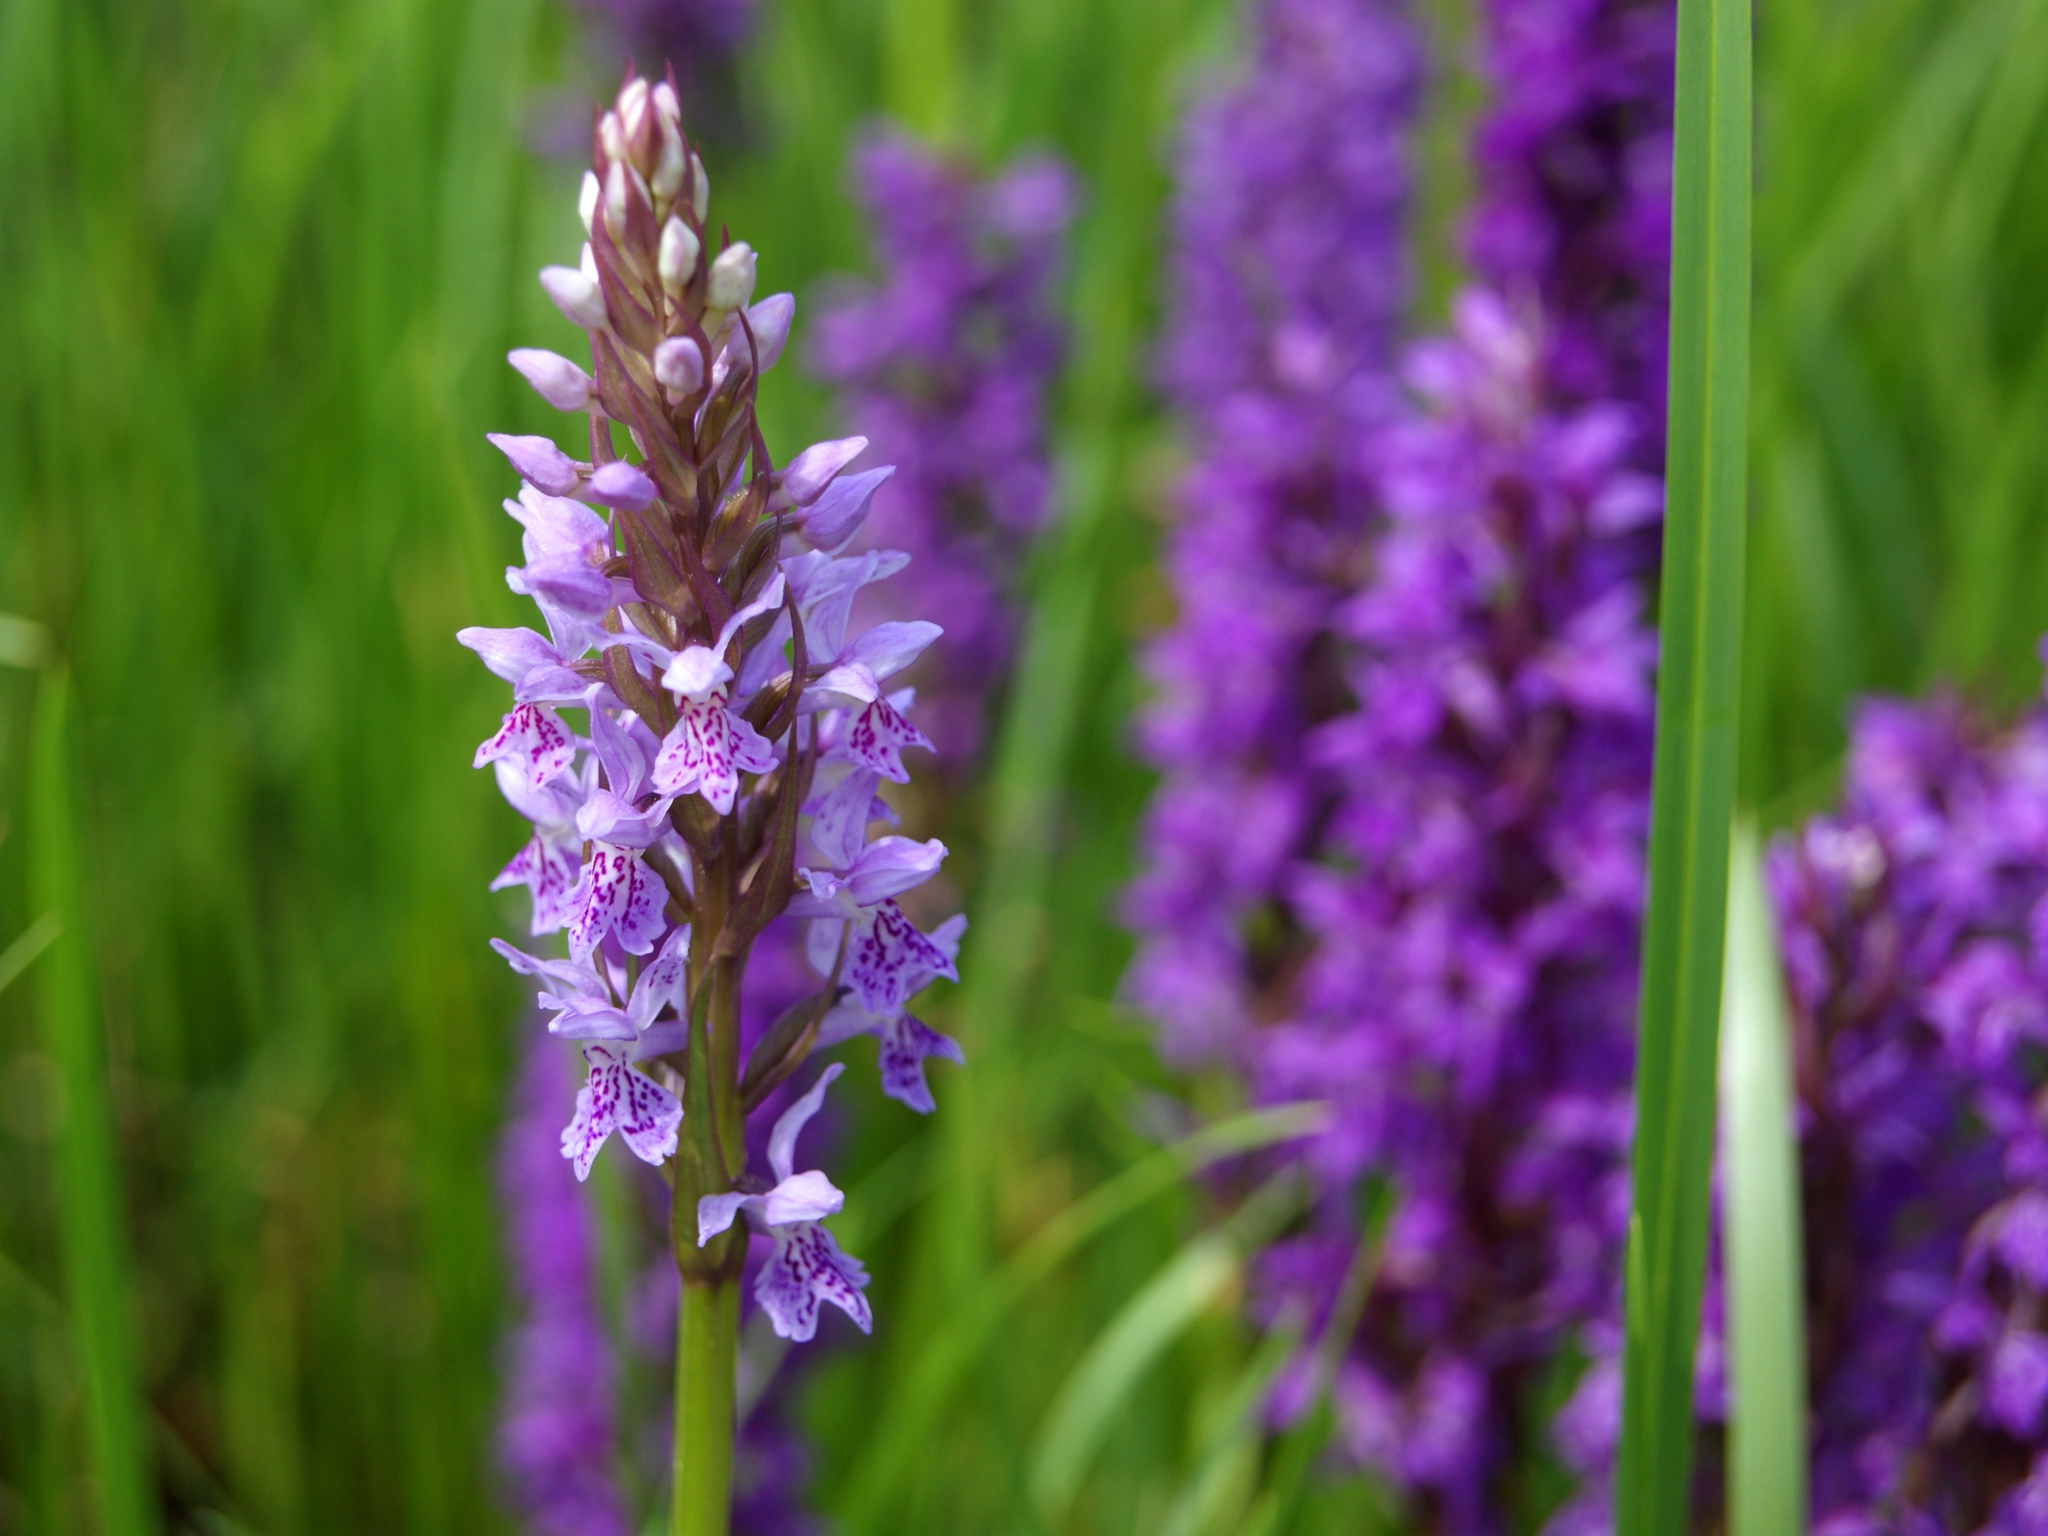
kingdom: Plantae
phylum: Tracheophyta
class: Liliopsida
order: Asparagales
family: Orchidaceae
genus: Dactylorhiza
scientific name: Dactylorhiza maculata
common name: Heath spotted-orchid
